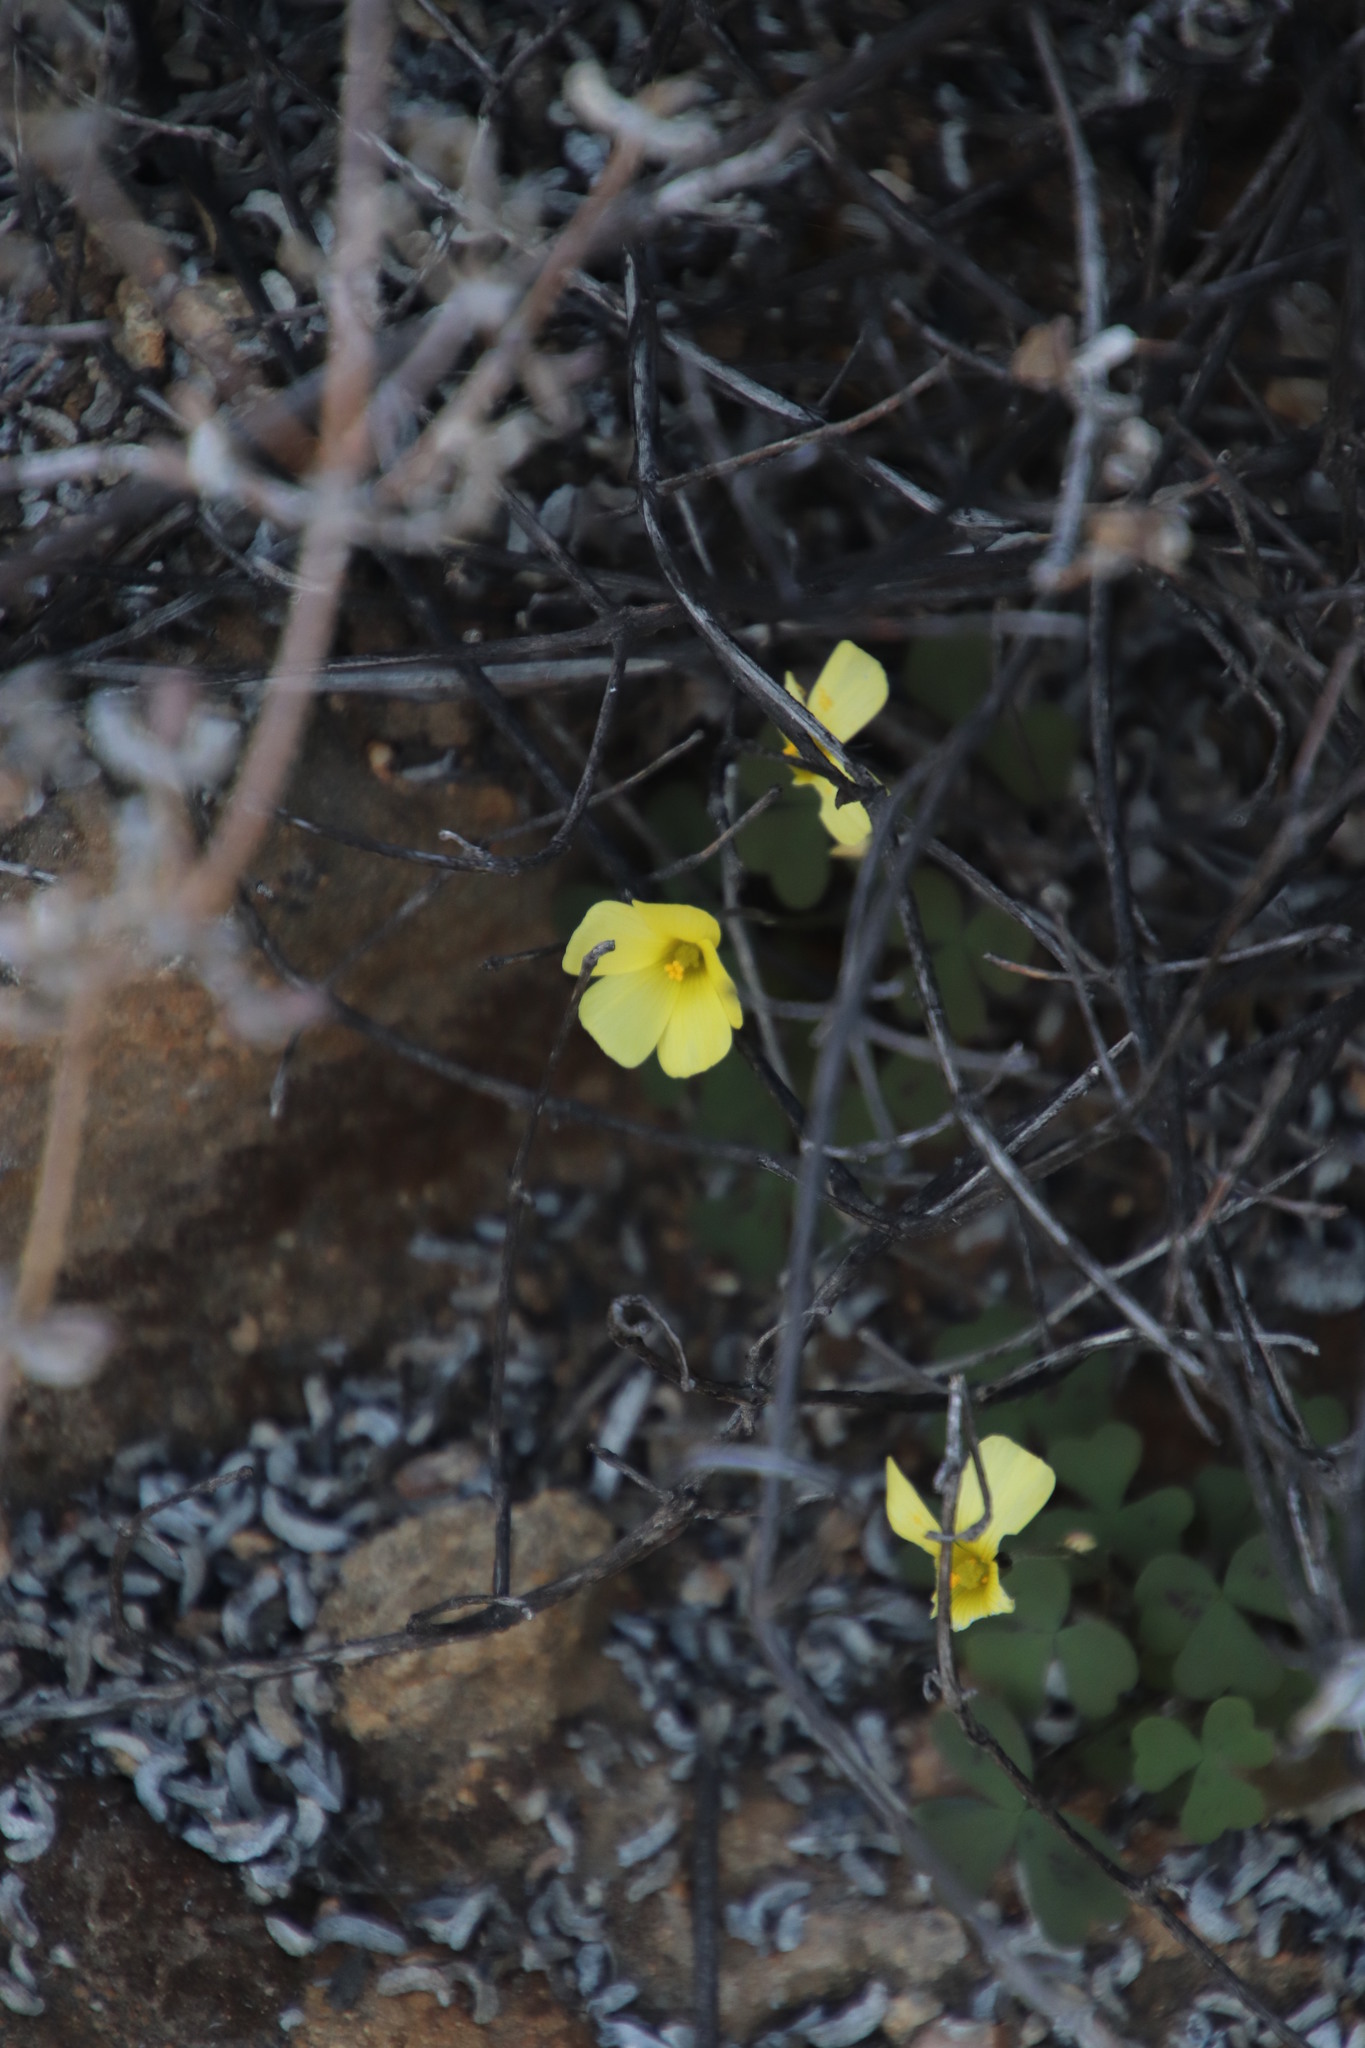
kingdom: Plantae
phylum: Tracheophyta
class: Magnoliopsida
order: Oxalidales
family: Oxalidaceae
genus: Oxalis
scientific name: Oxalis obtusa
